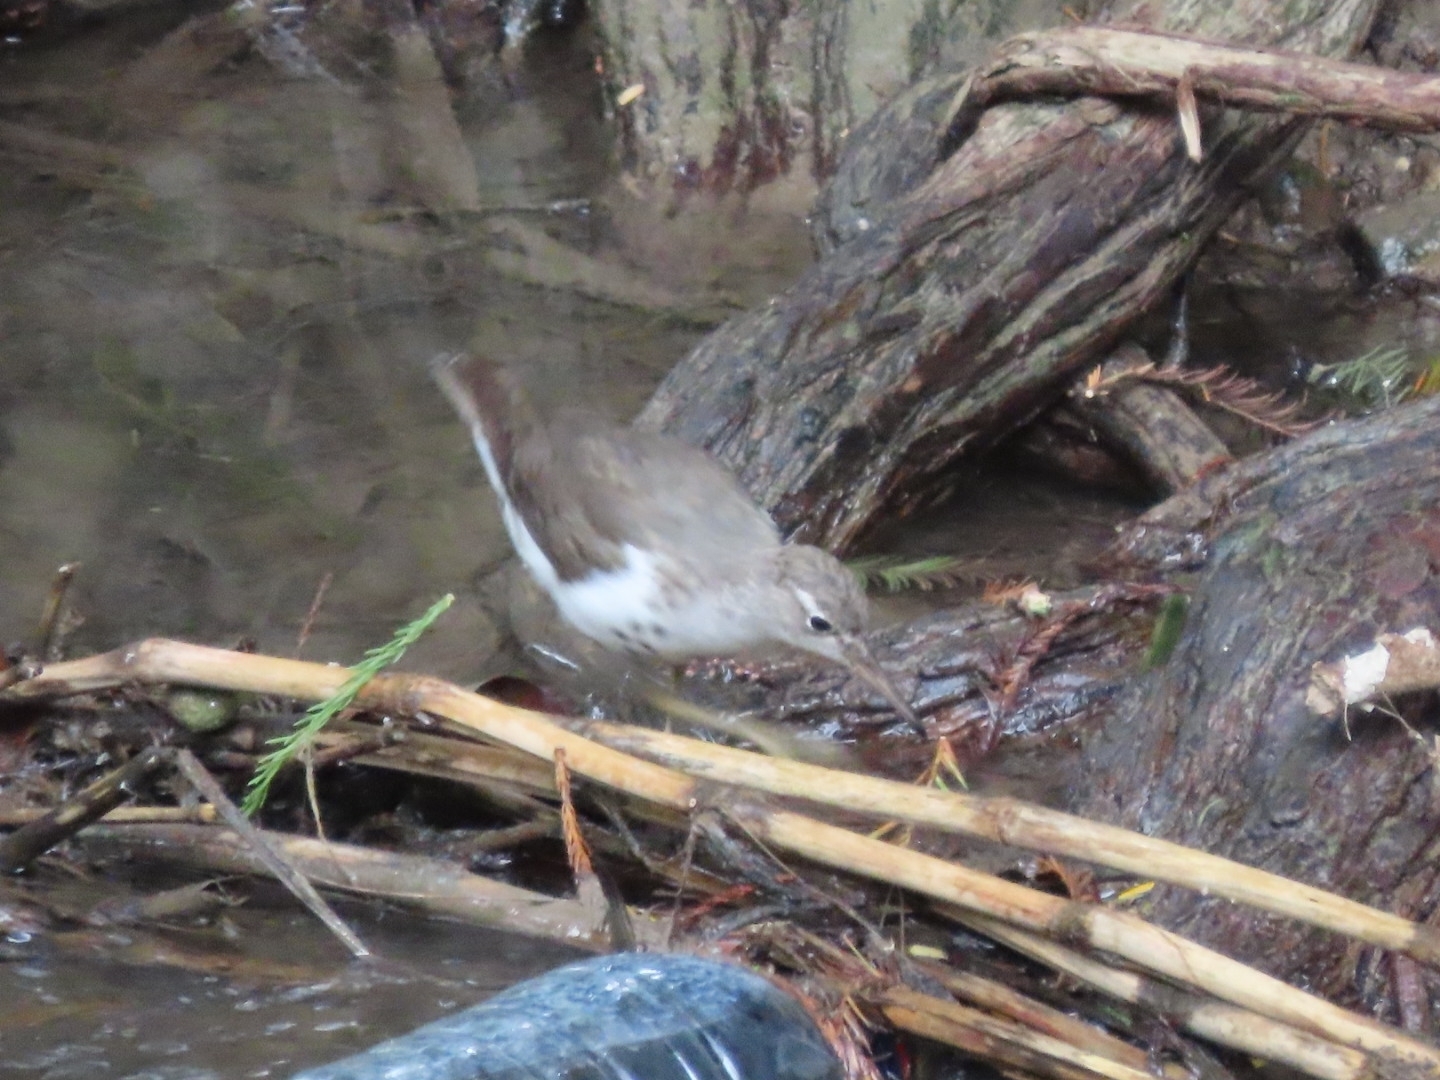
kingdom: Animalia
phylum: Chordata
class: Aves
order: Charadriiformes
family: Scolopacidae
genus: Actitis
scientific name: Actitis macularius
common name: Spotted sandpiper
